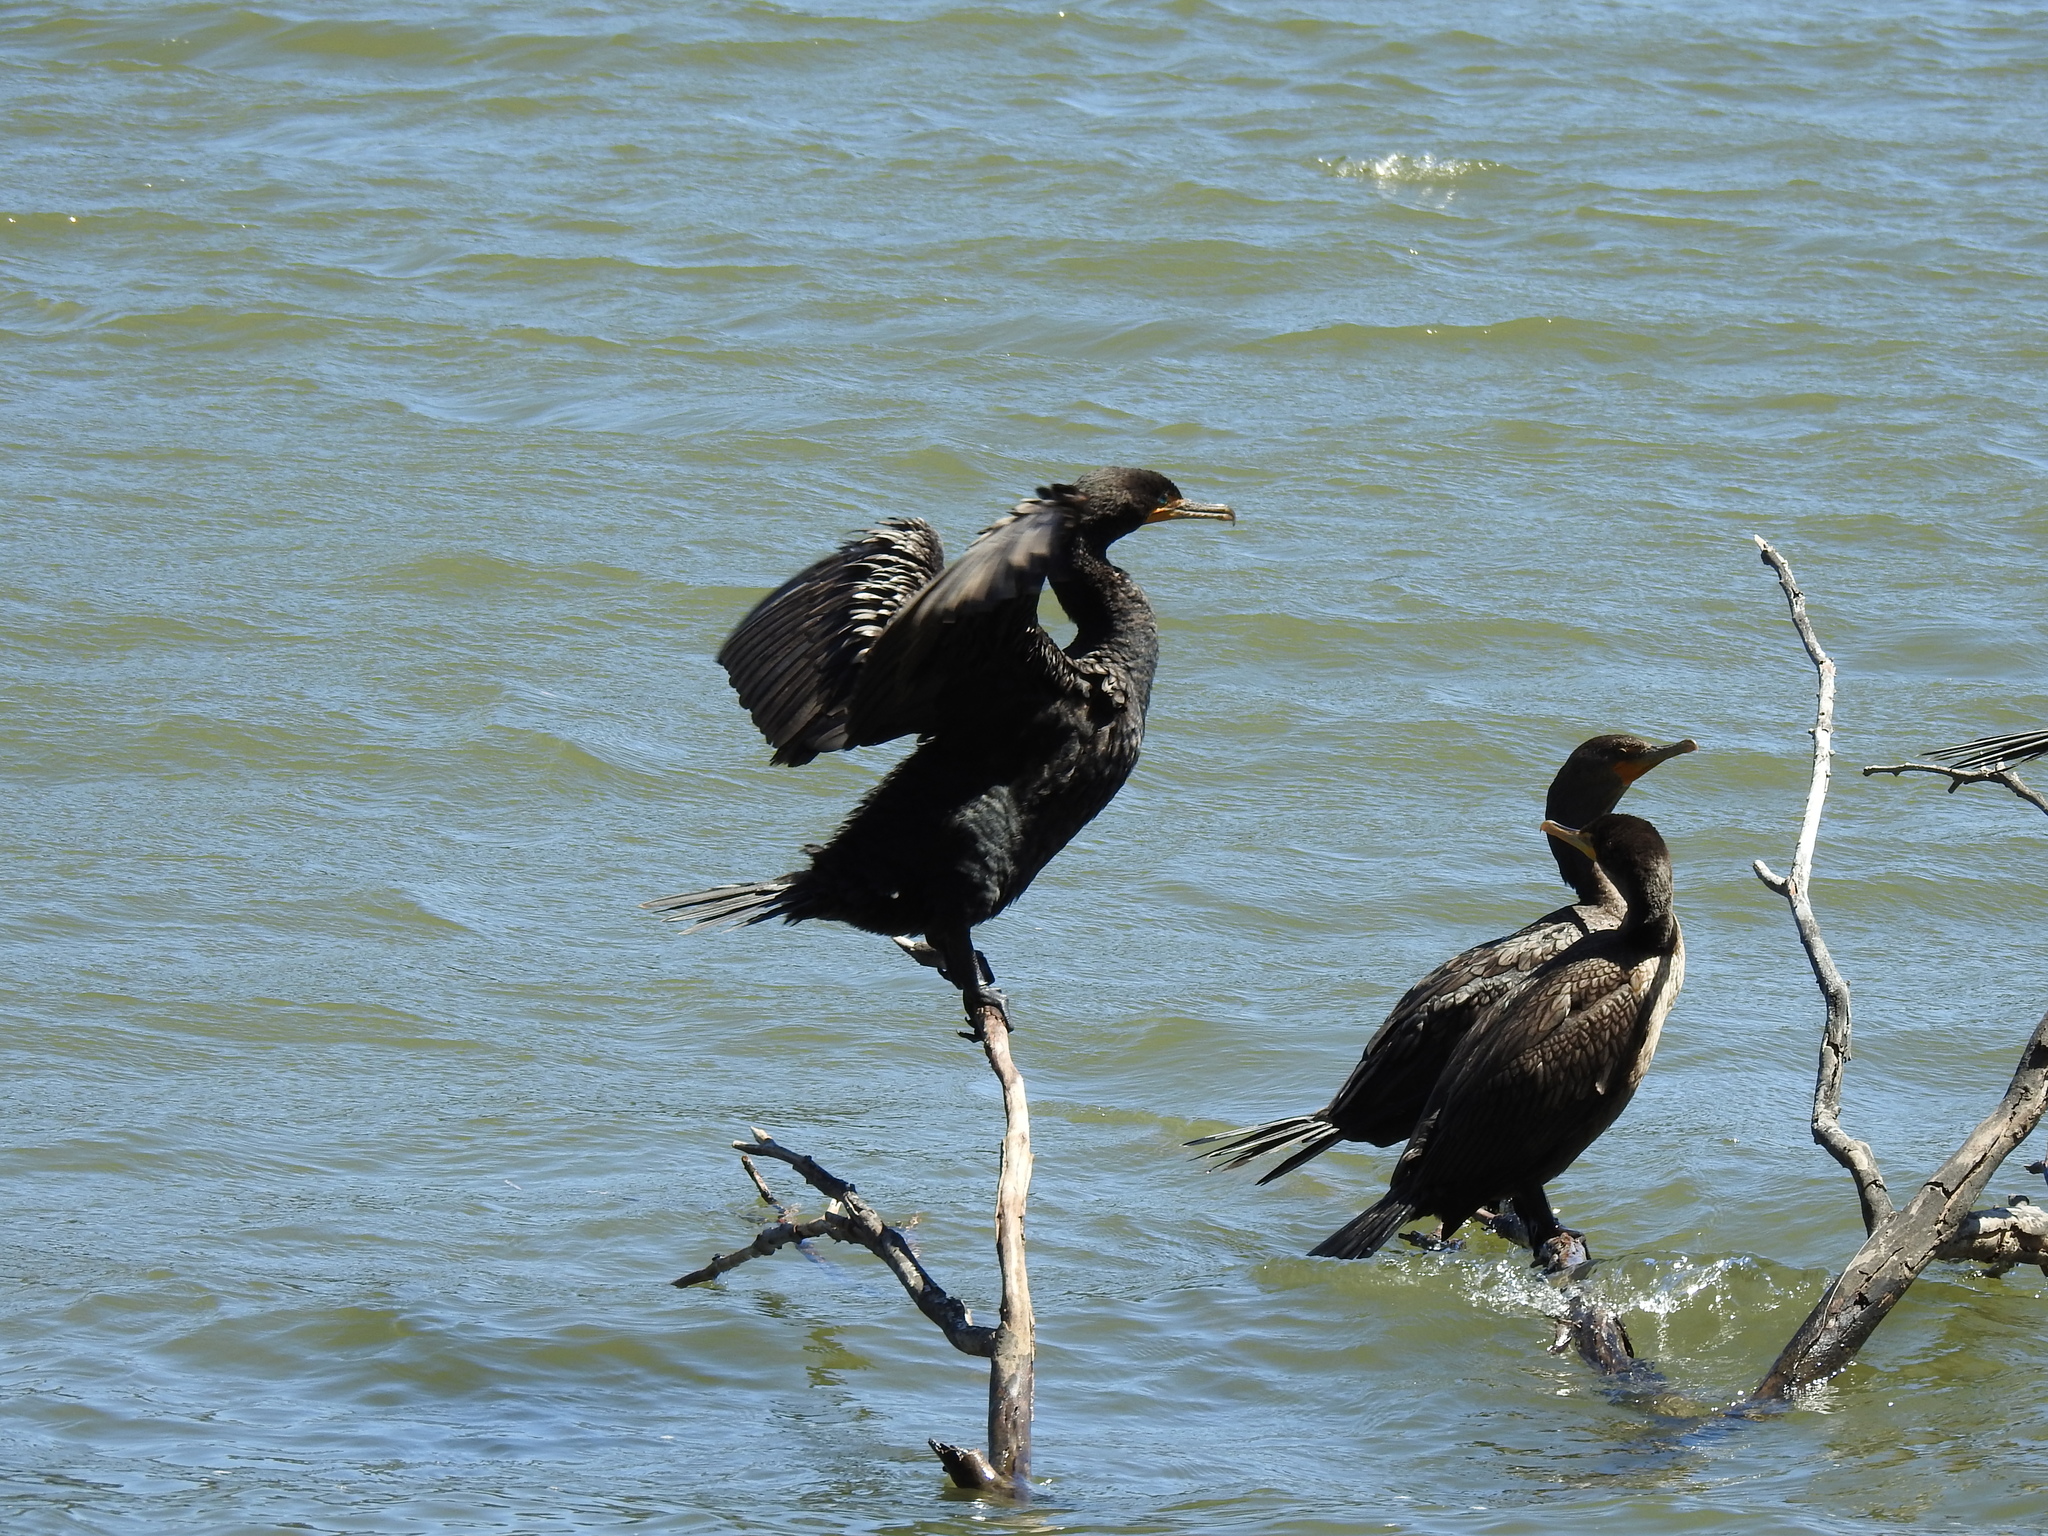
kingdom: Animalia
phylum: Chordata
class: Aves
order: Suliformes
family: Phalacrocoracidae
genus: Phalacrocorax
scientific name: Phalacrocorax auritus
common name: Double-crested cormorant
